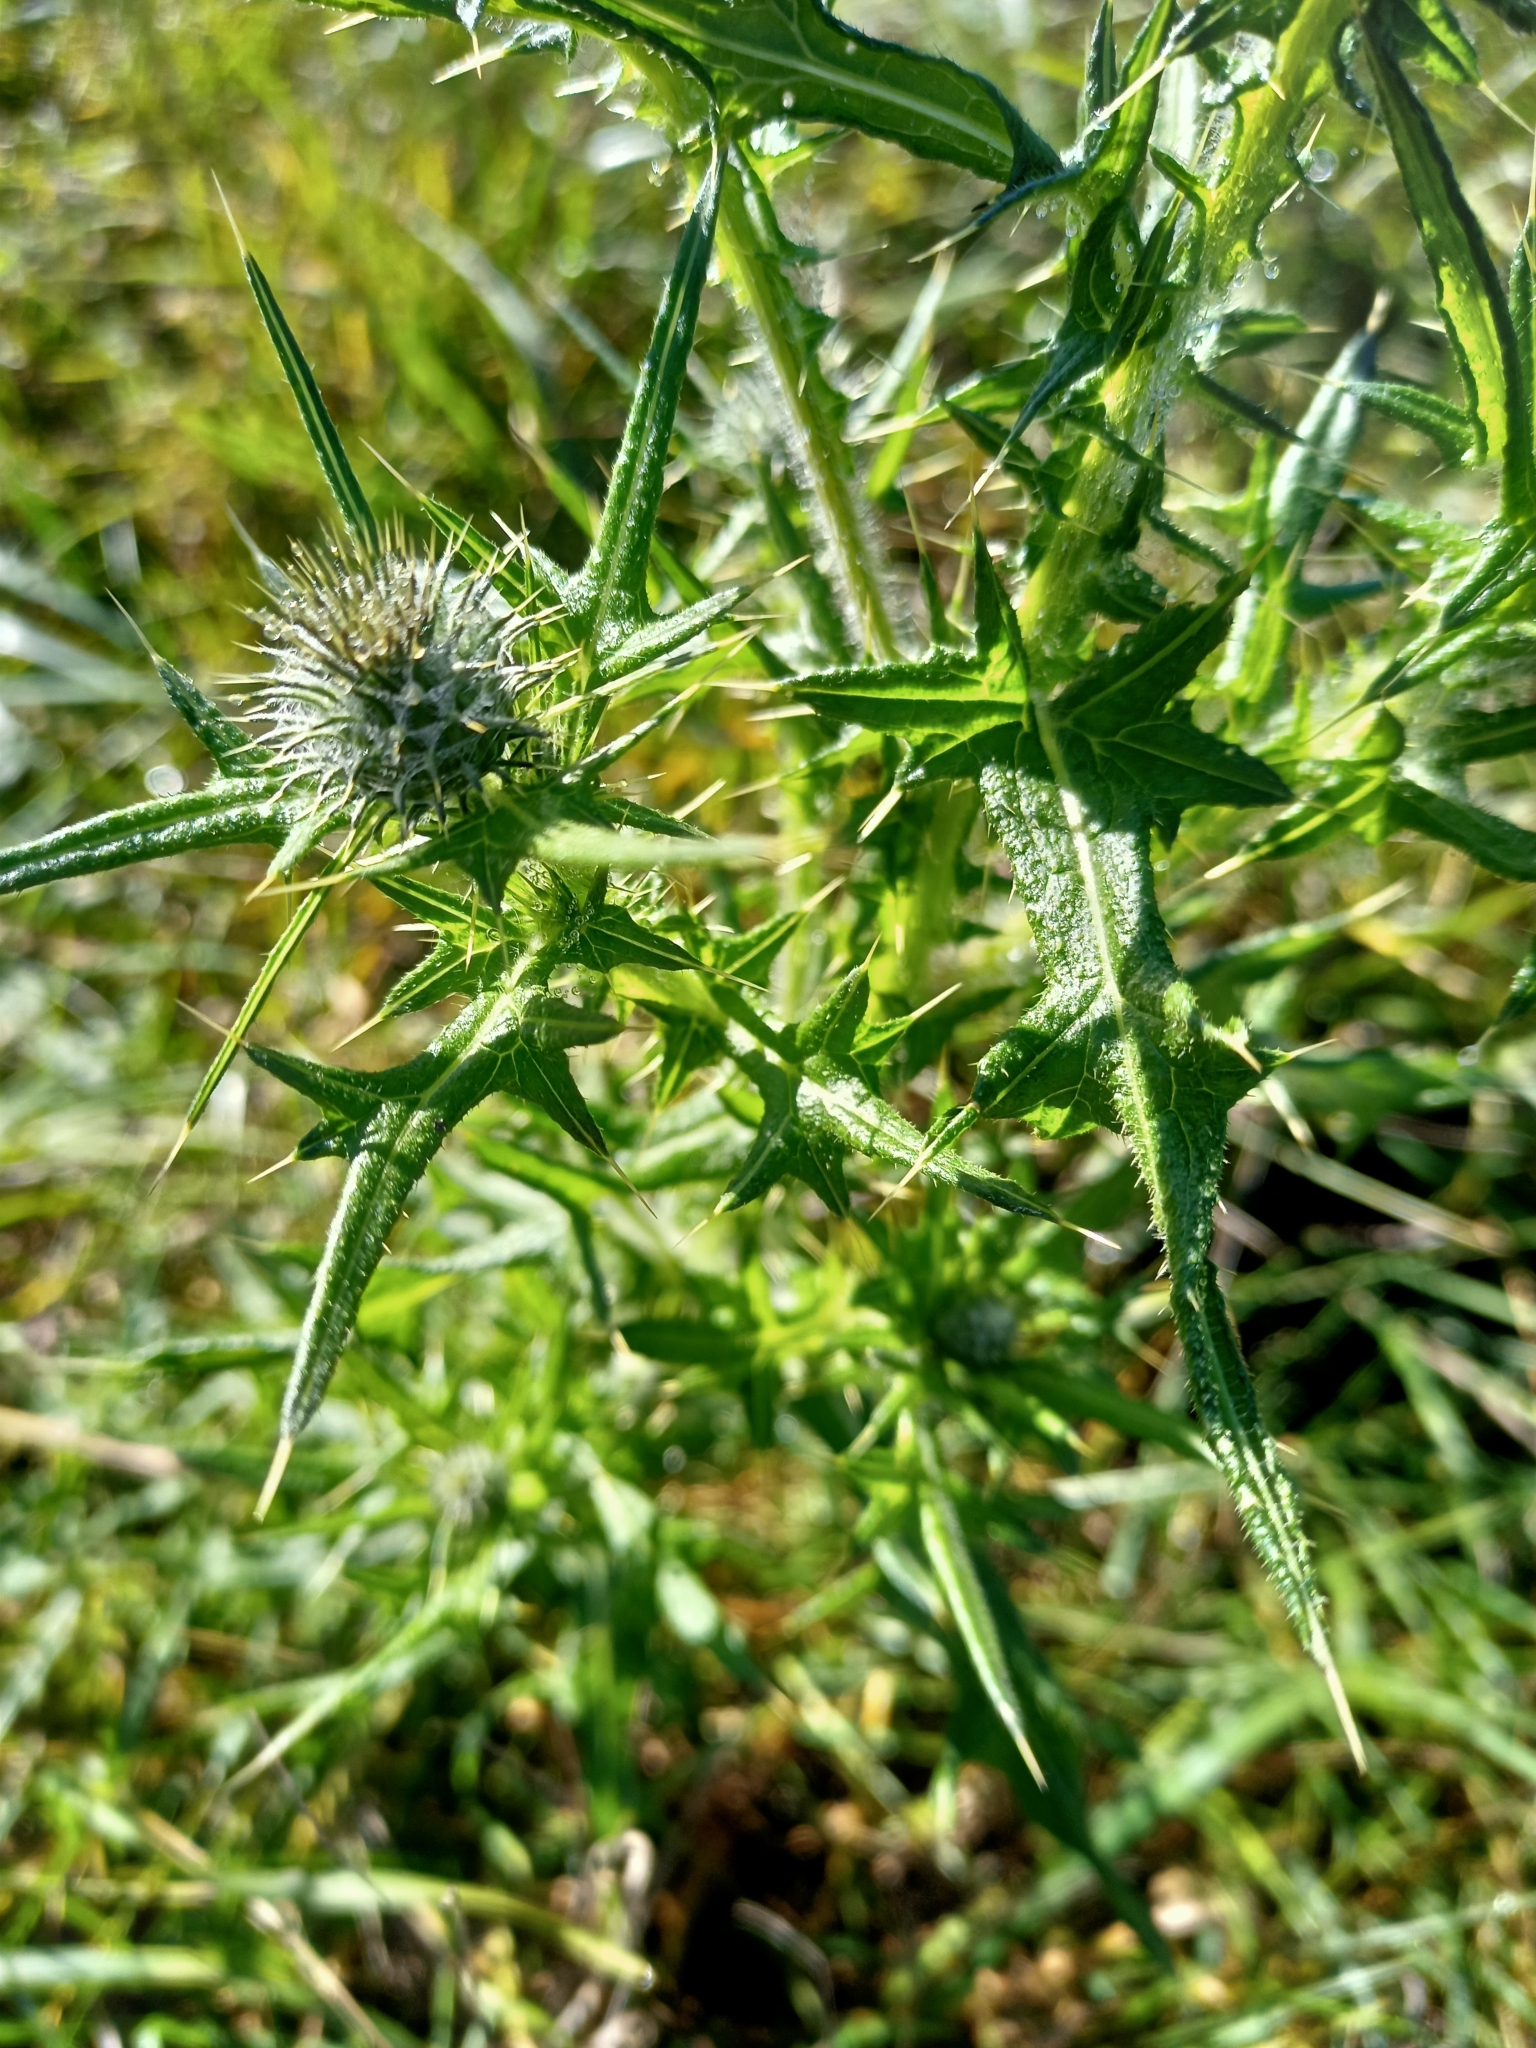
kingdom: Plantae
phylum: Tracheophyta
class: Magnoliopsida
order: Asterales
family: Asteraceae
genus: Cirsium
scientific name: Cirsium vulgare
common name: Bull thistle
